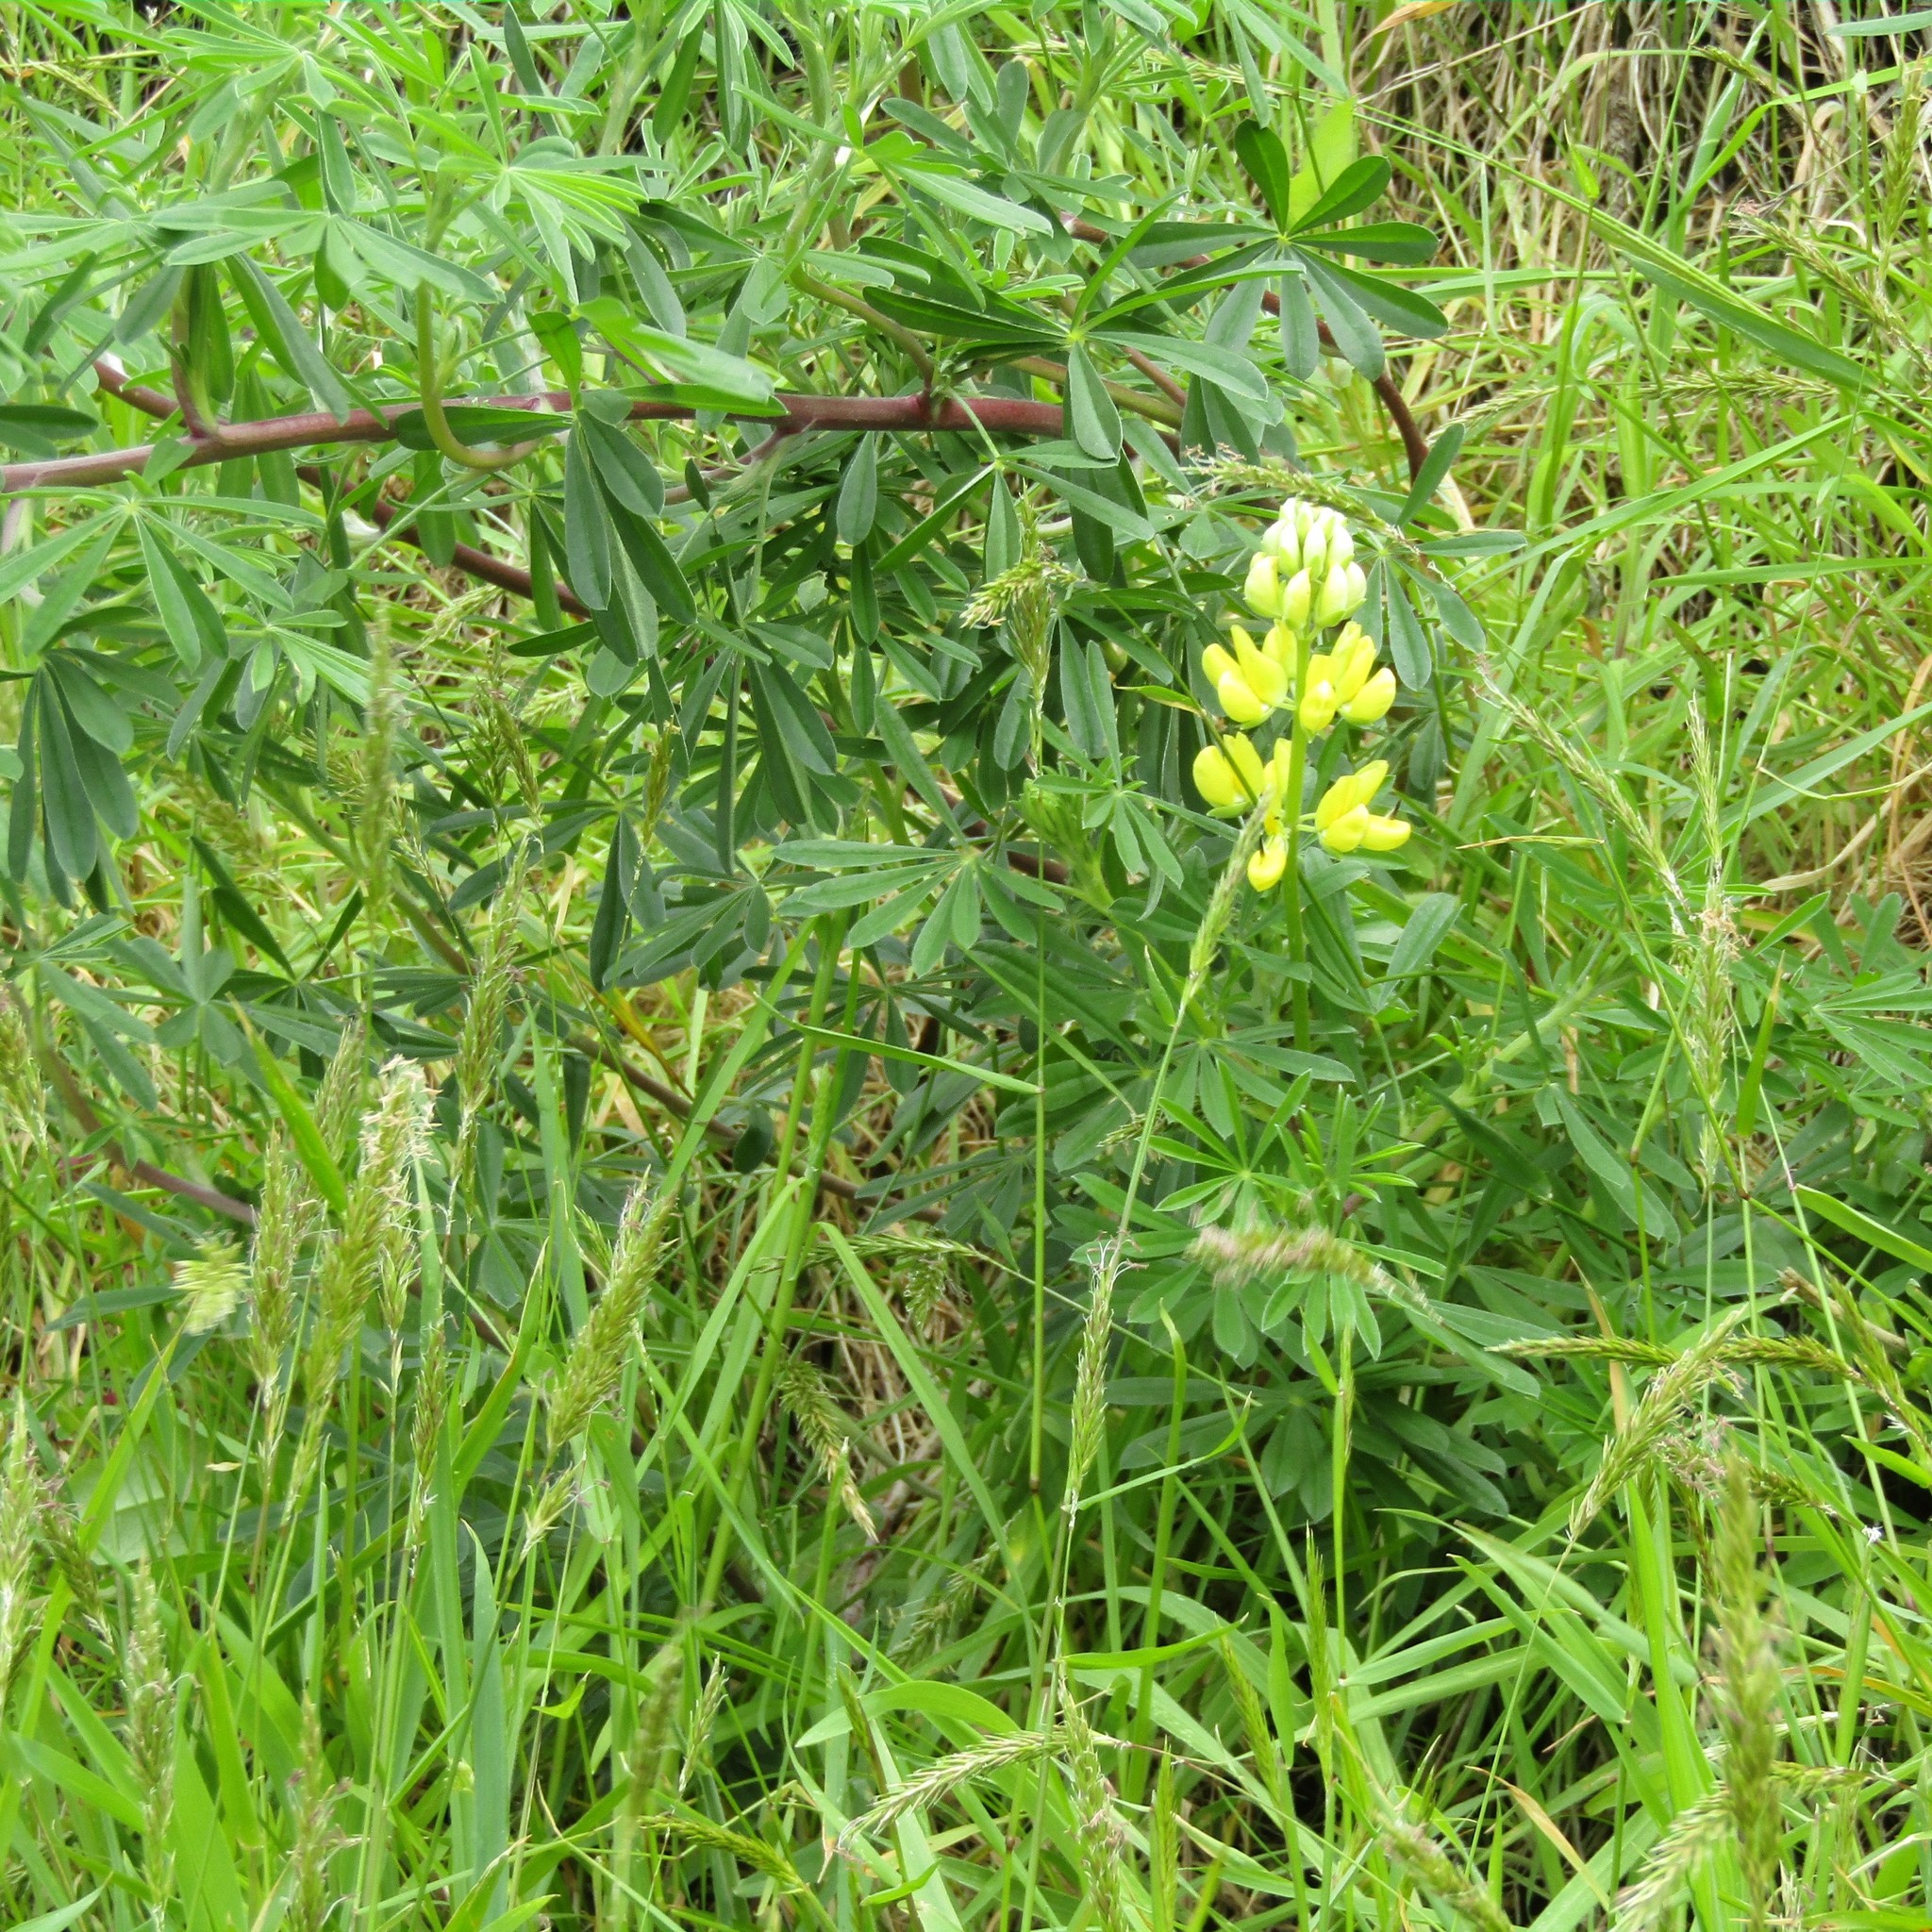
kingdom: Plantae
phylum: Tracheophyta
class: Magnoliopsida
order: Fabales
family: Fabaceae
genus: Lupinus
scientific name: Lupinus arboreus
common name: Yellow bush lupine
